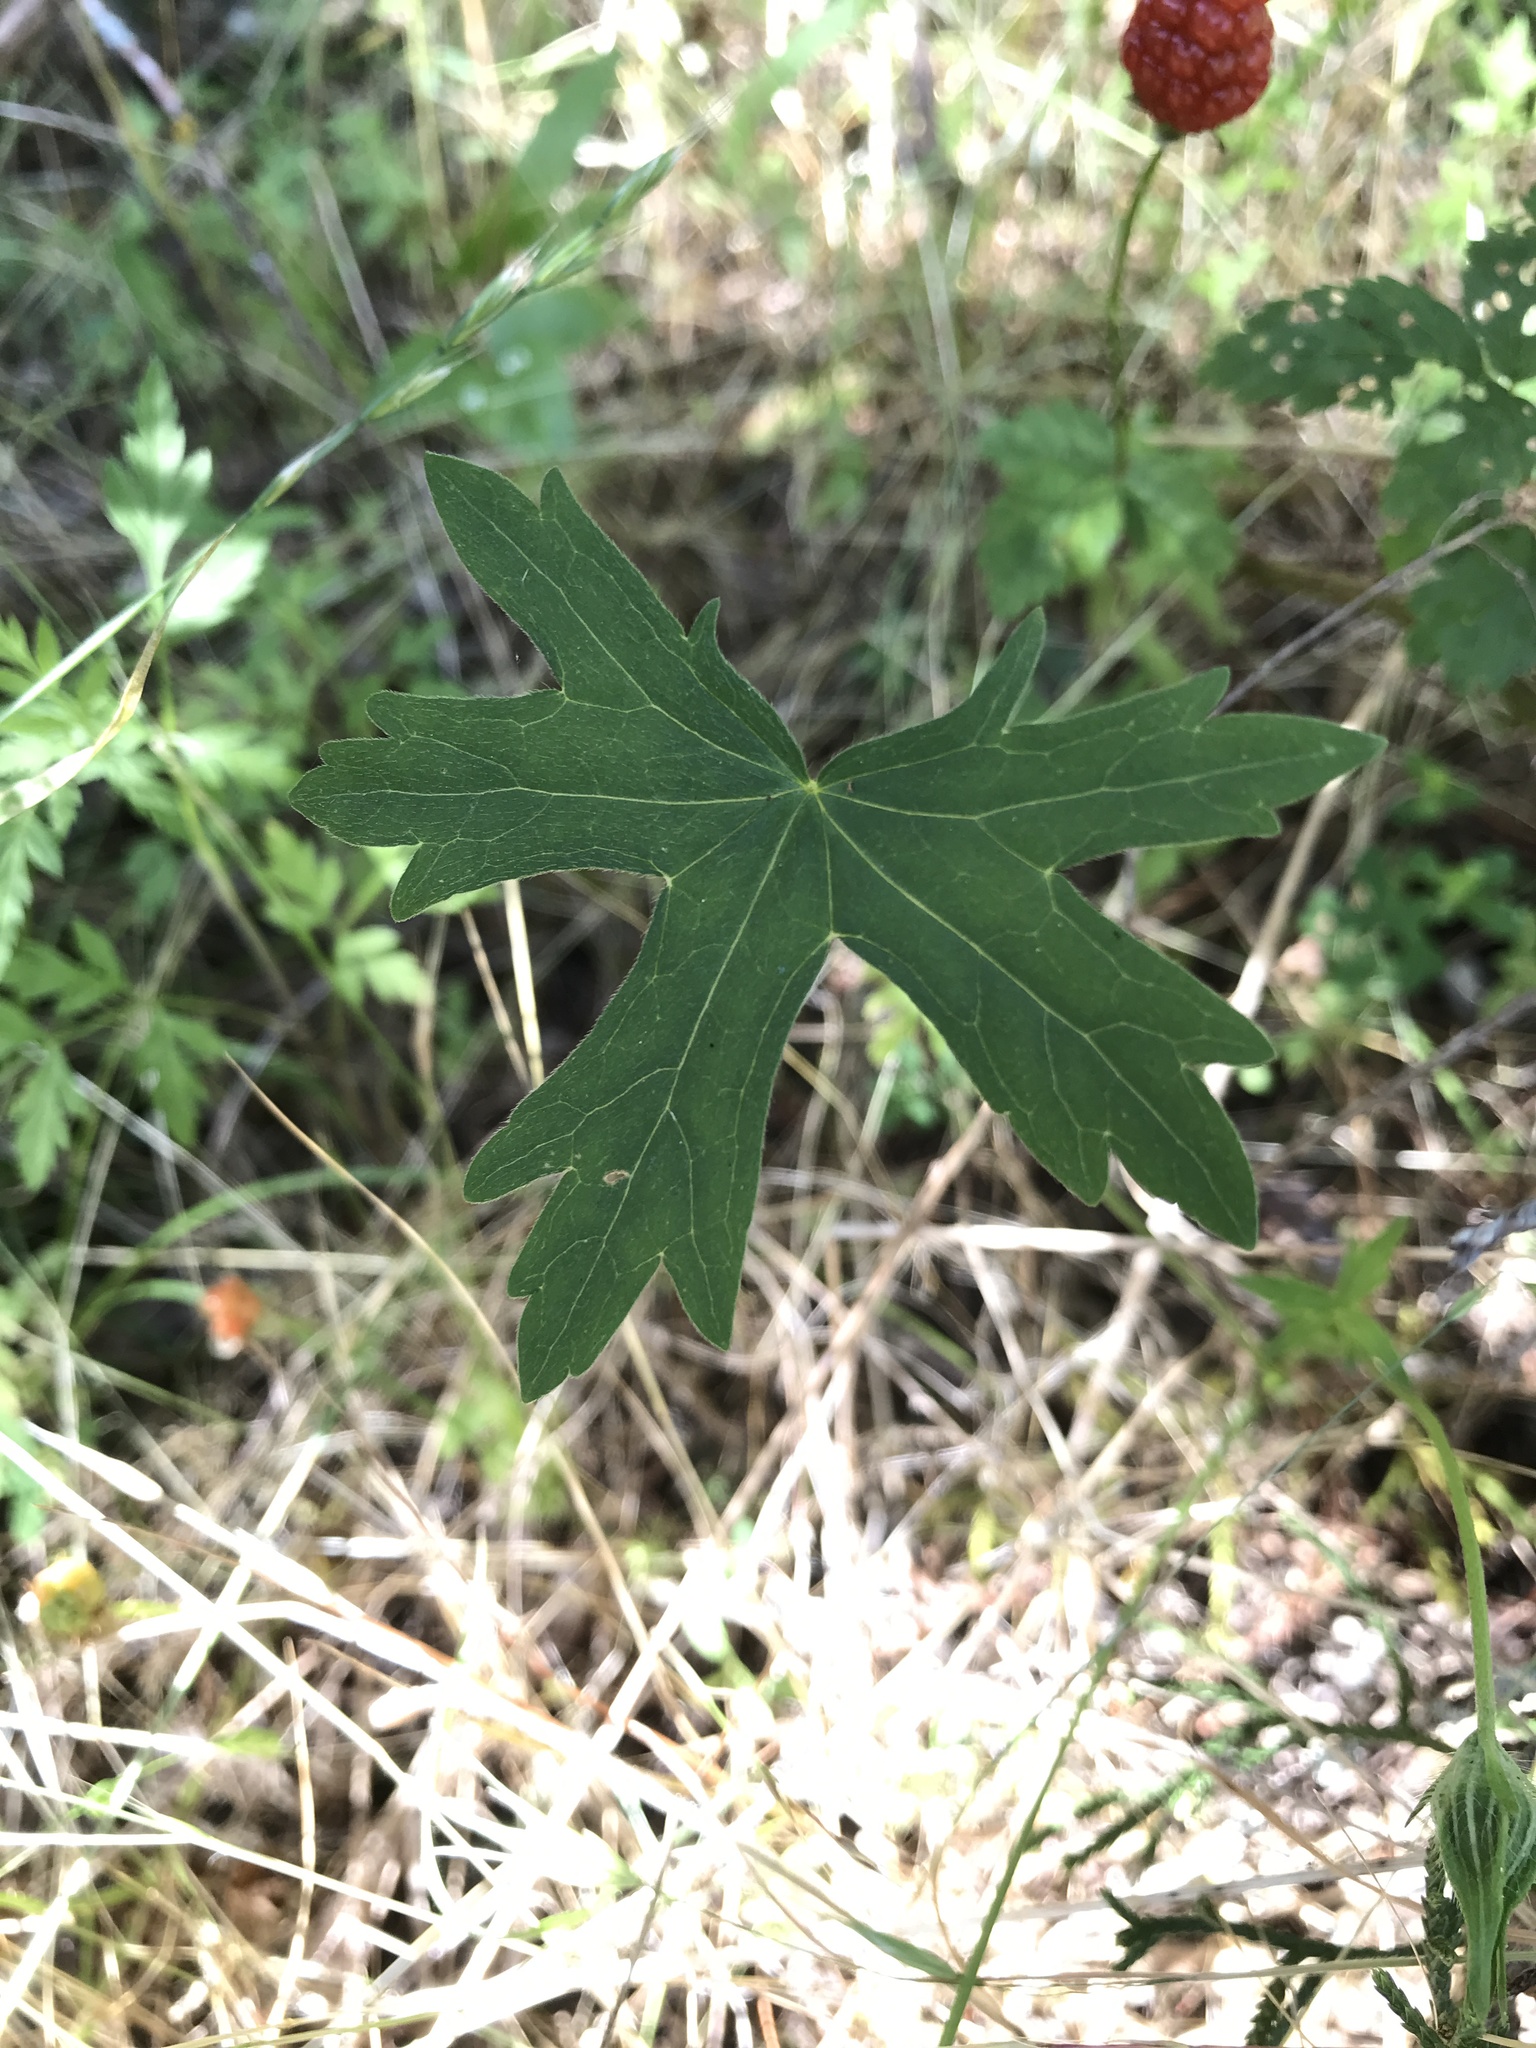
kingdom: Plantae
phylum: Tracheophyta
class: Magnoliopsida
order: Malvales
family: Malvaceae
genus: Callirhoe
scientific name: Callirhoe involucrata
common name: Purple poppy-mallow
